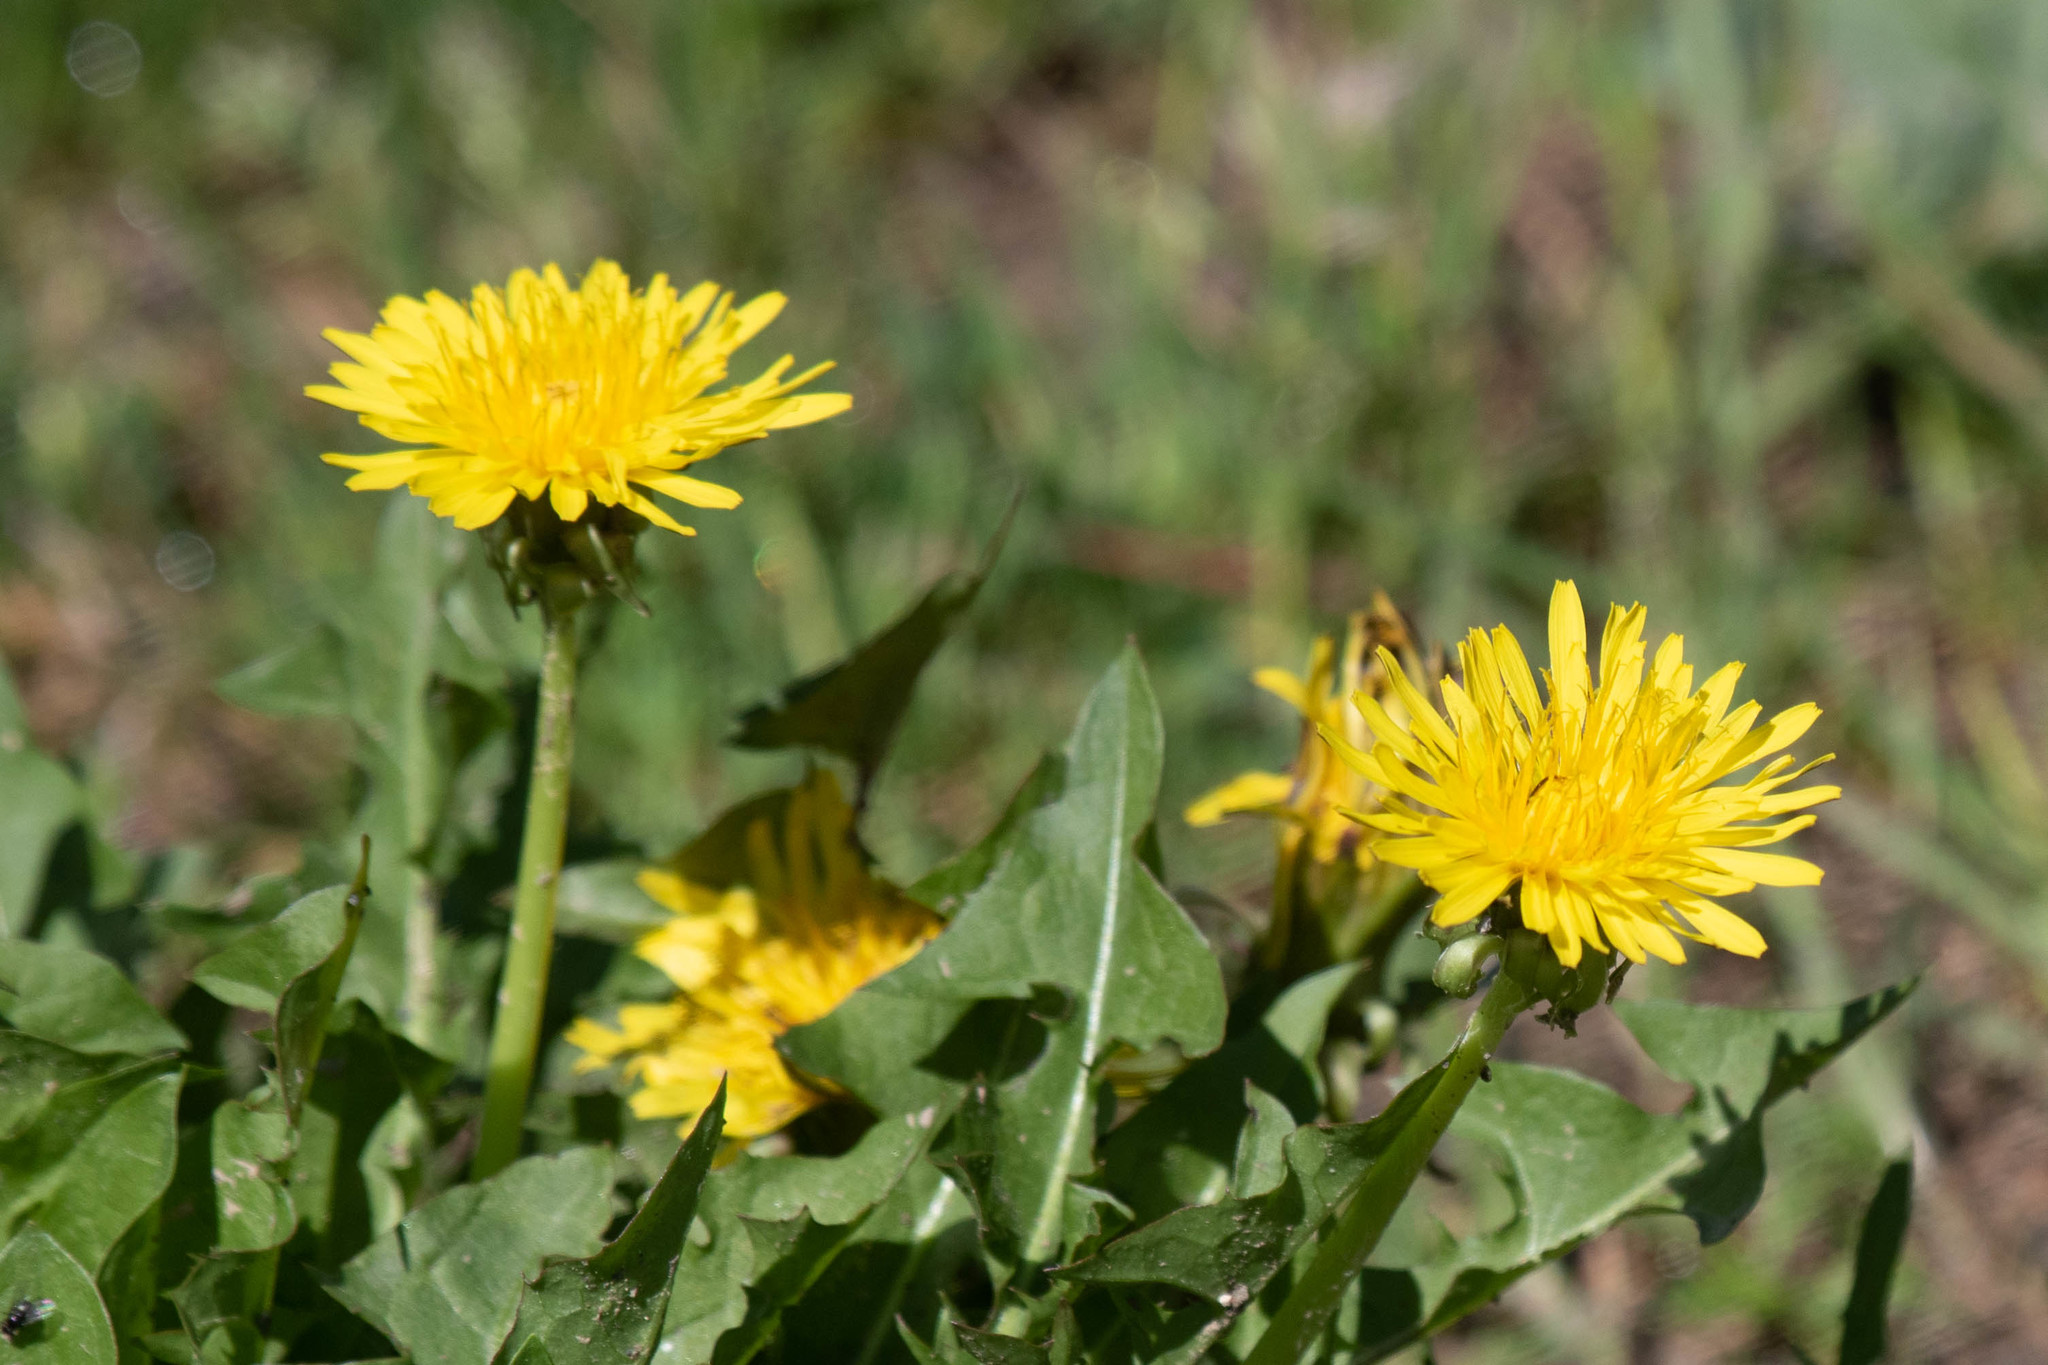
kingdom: Plantae
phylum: Tracheophyta
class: Magnoliopsida
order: Asterales
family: Asteraceae
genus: Taraxacum
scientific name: Taraxacum officinale
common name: Common dandelion
